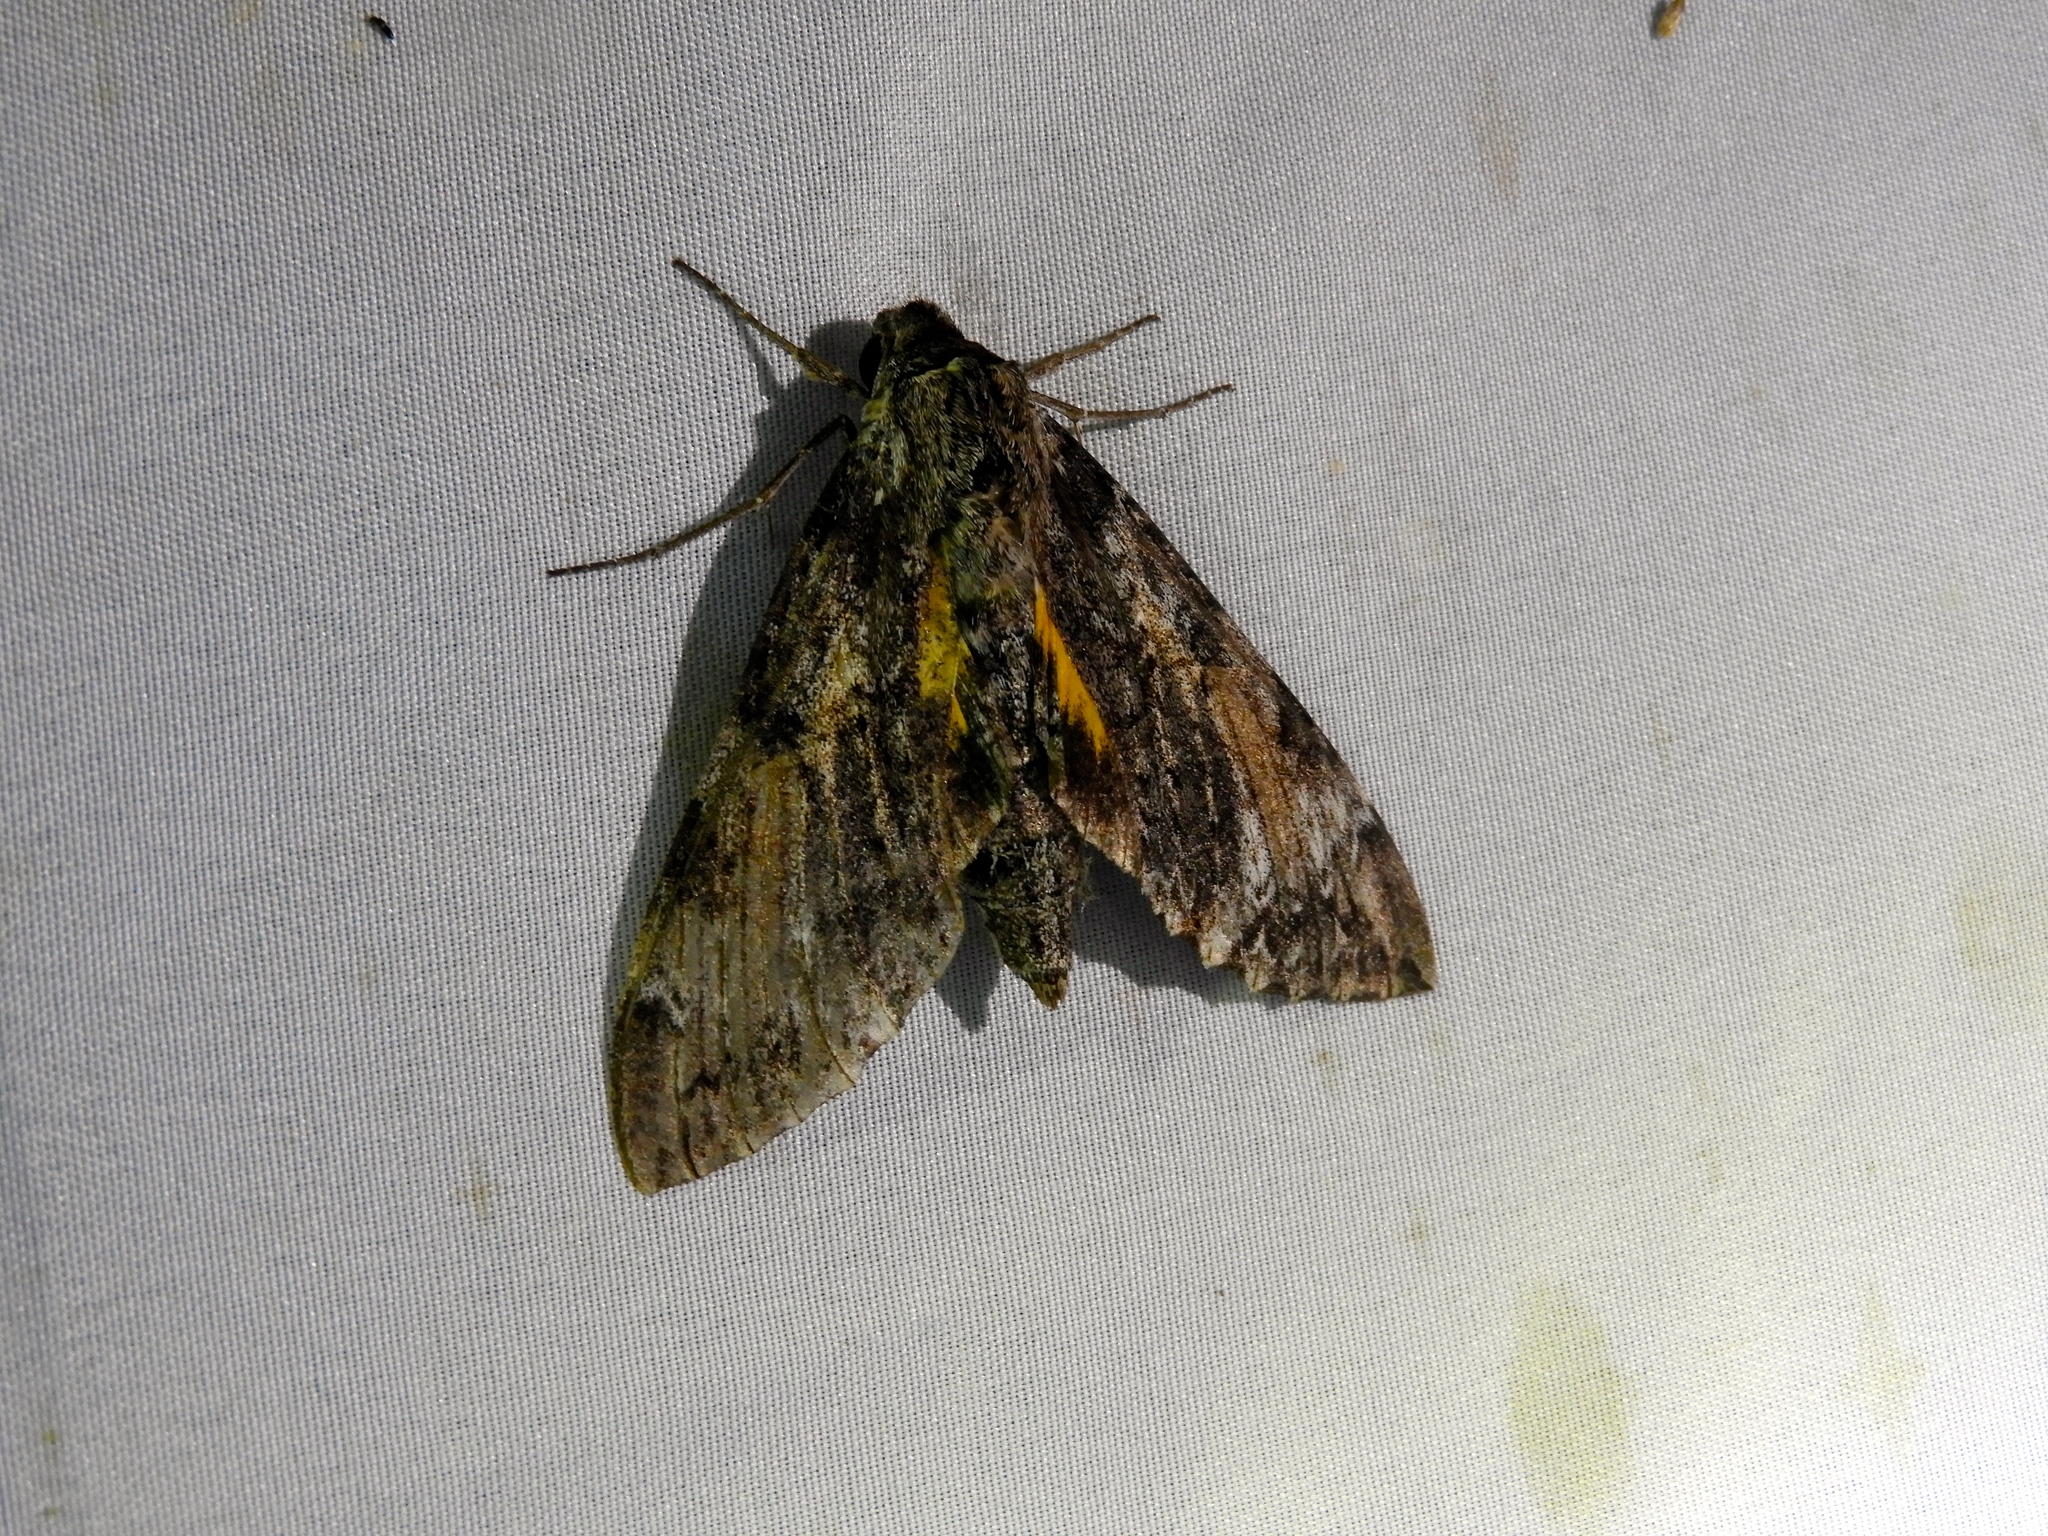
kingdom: Animalia
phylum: Arthropoda
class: Insecta
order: Lepidoptera
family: Sphingidae
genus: Isognathus
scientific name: Isognathus rimosa
